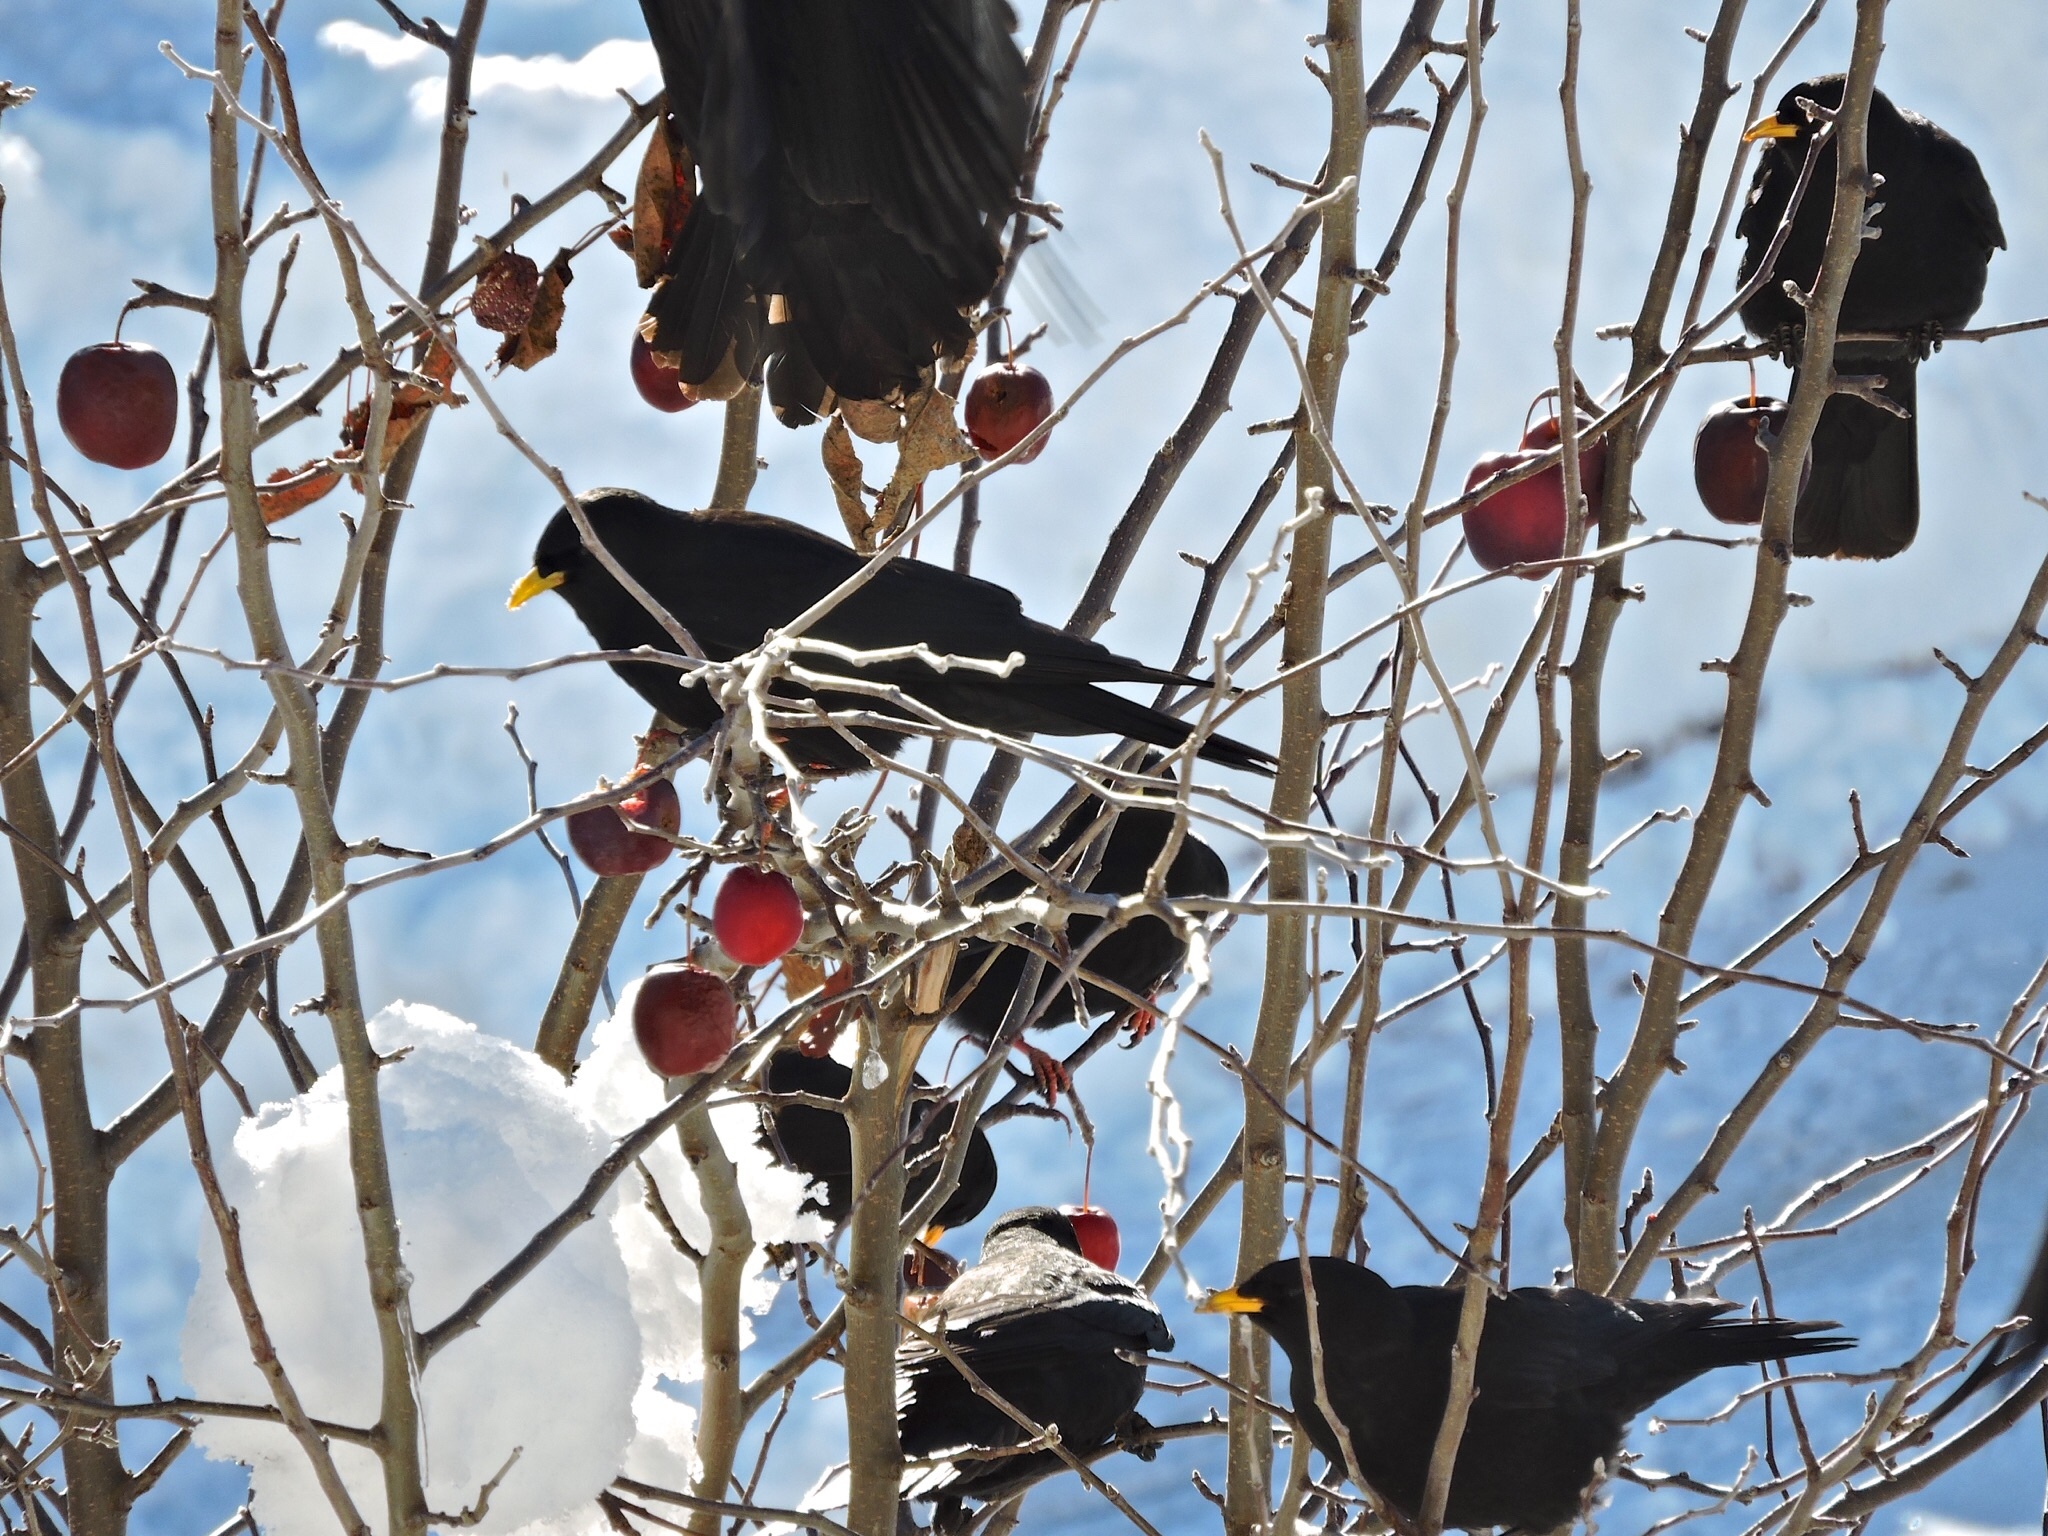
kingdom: Animalia
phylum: Chordata
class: Aves
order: Passeriformes
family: Corvidae
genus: Pyrrhocorax
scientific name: Pyrrhocorax graculus
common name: Alpine chough
